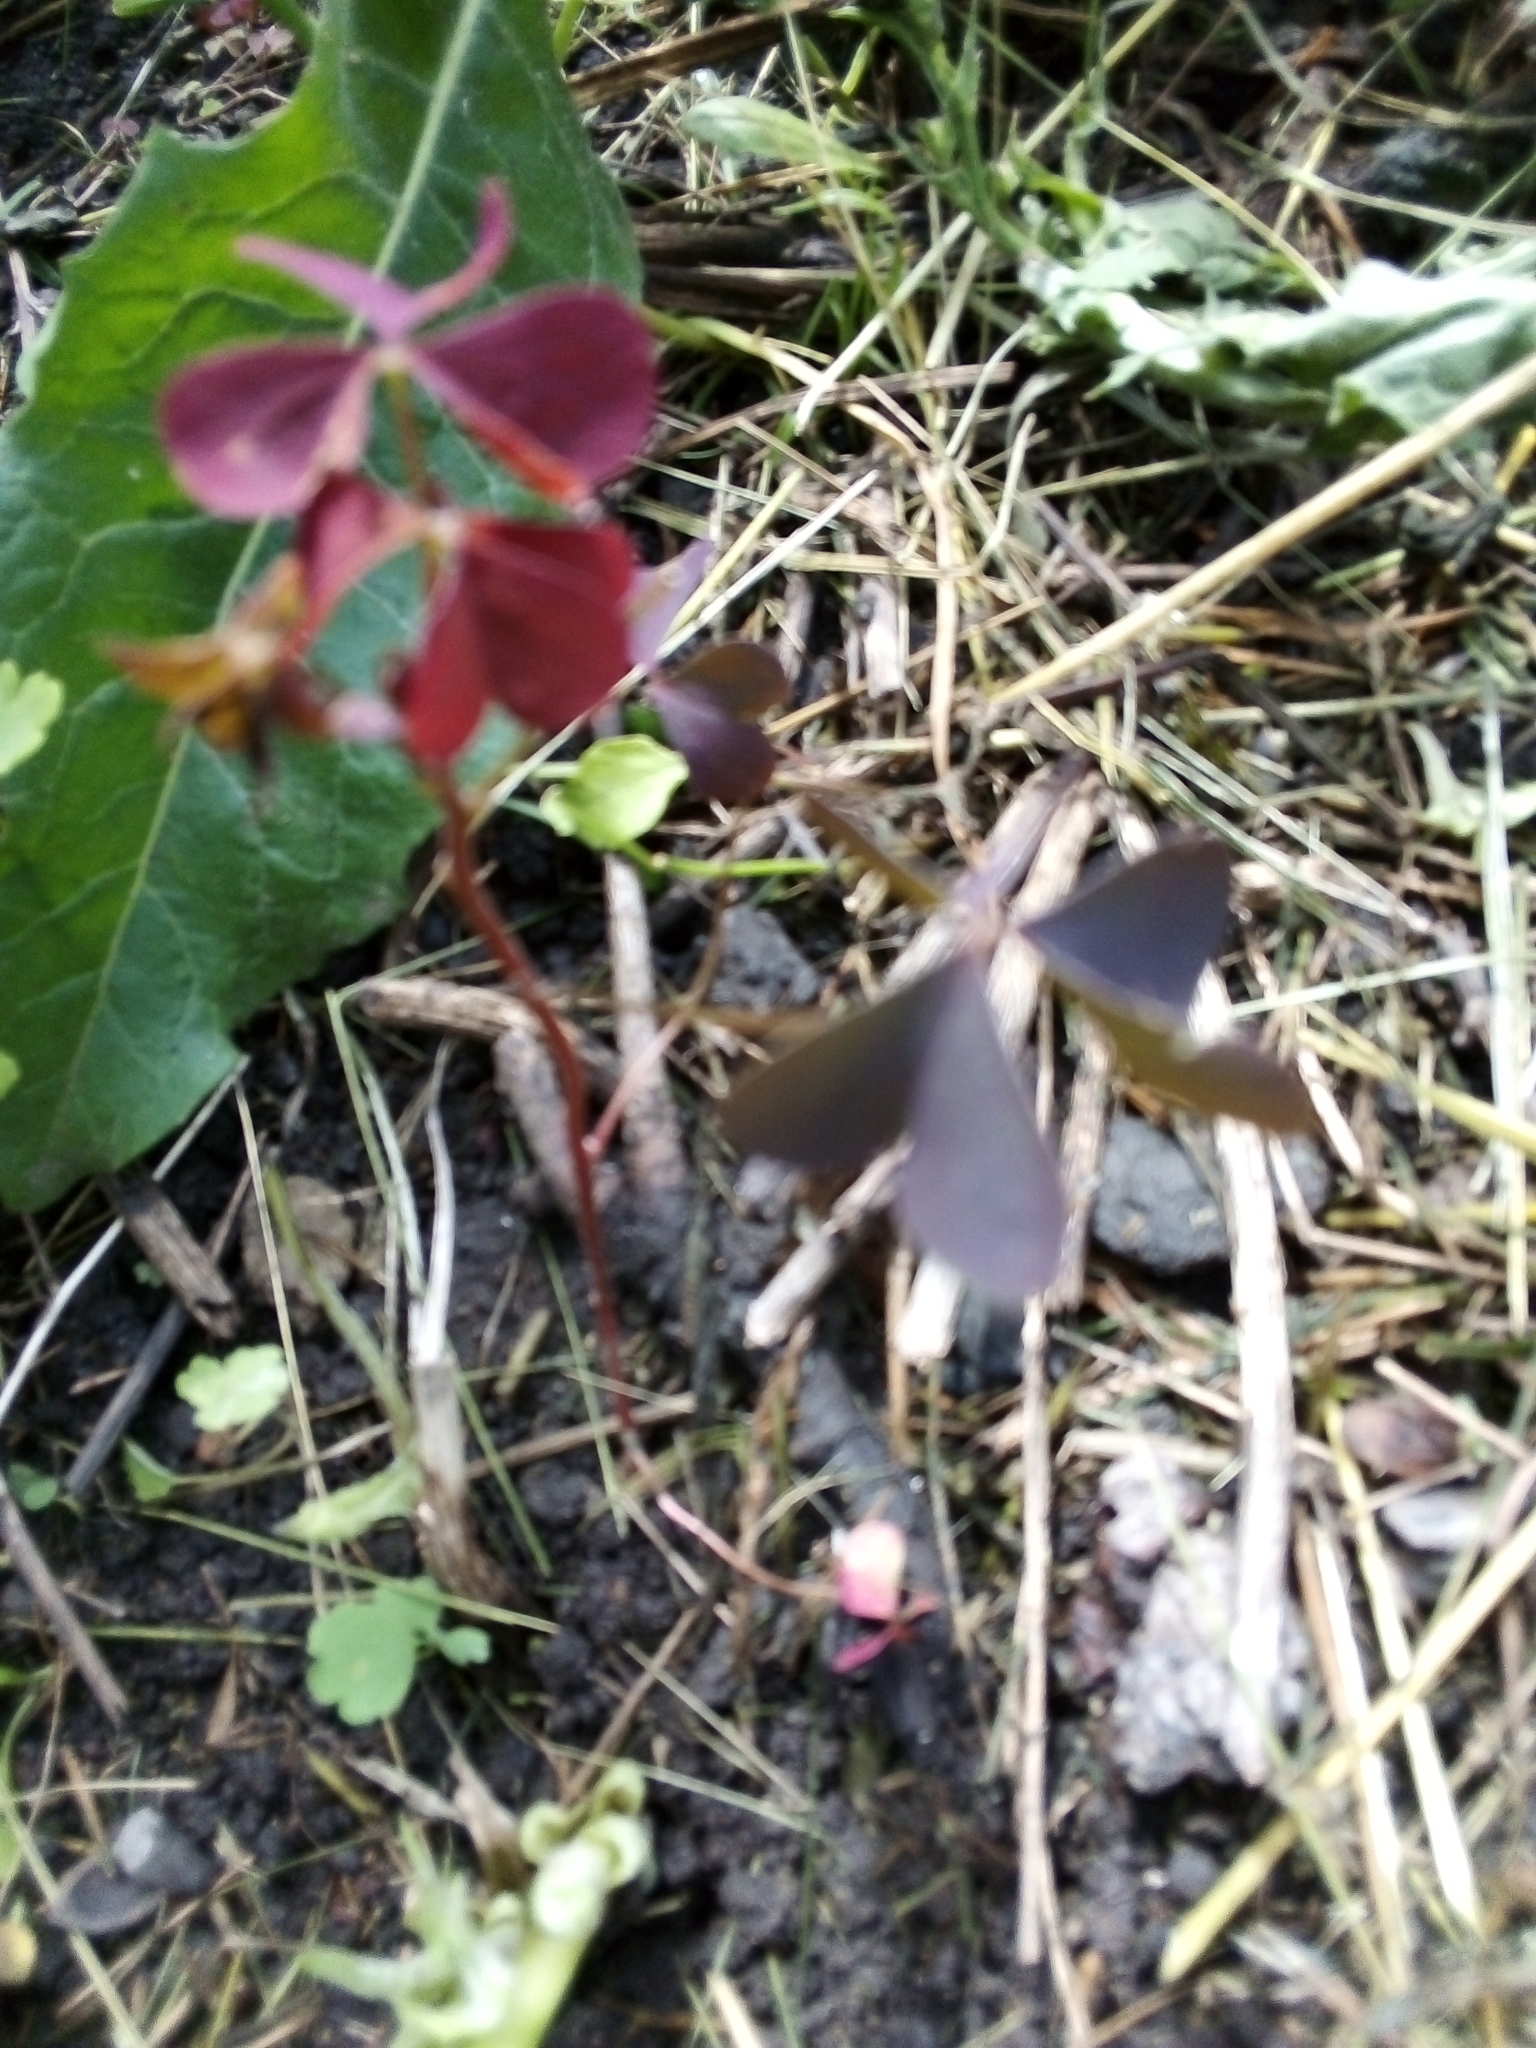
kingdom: Plantae
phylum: Tracheophyta
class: Magnoliopsida
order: Oxalidales
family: Oxalidaceae
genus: Oxalis
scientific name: Oxalis stricta
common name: Upright yellow-sorrel
